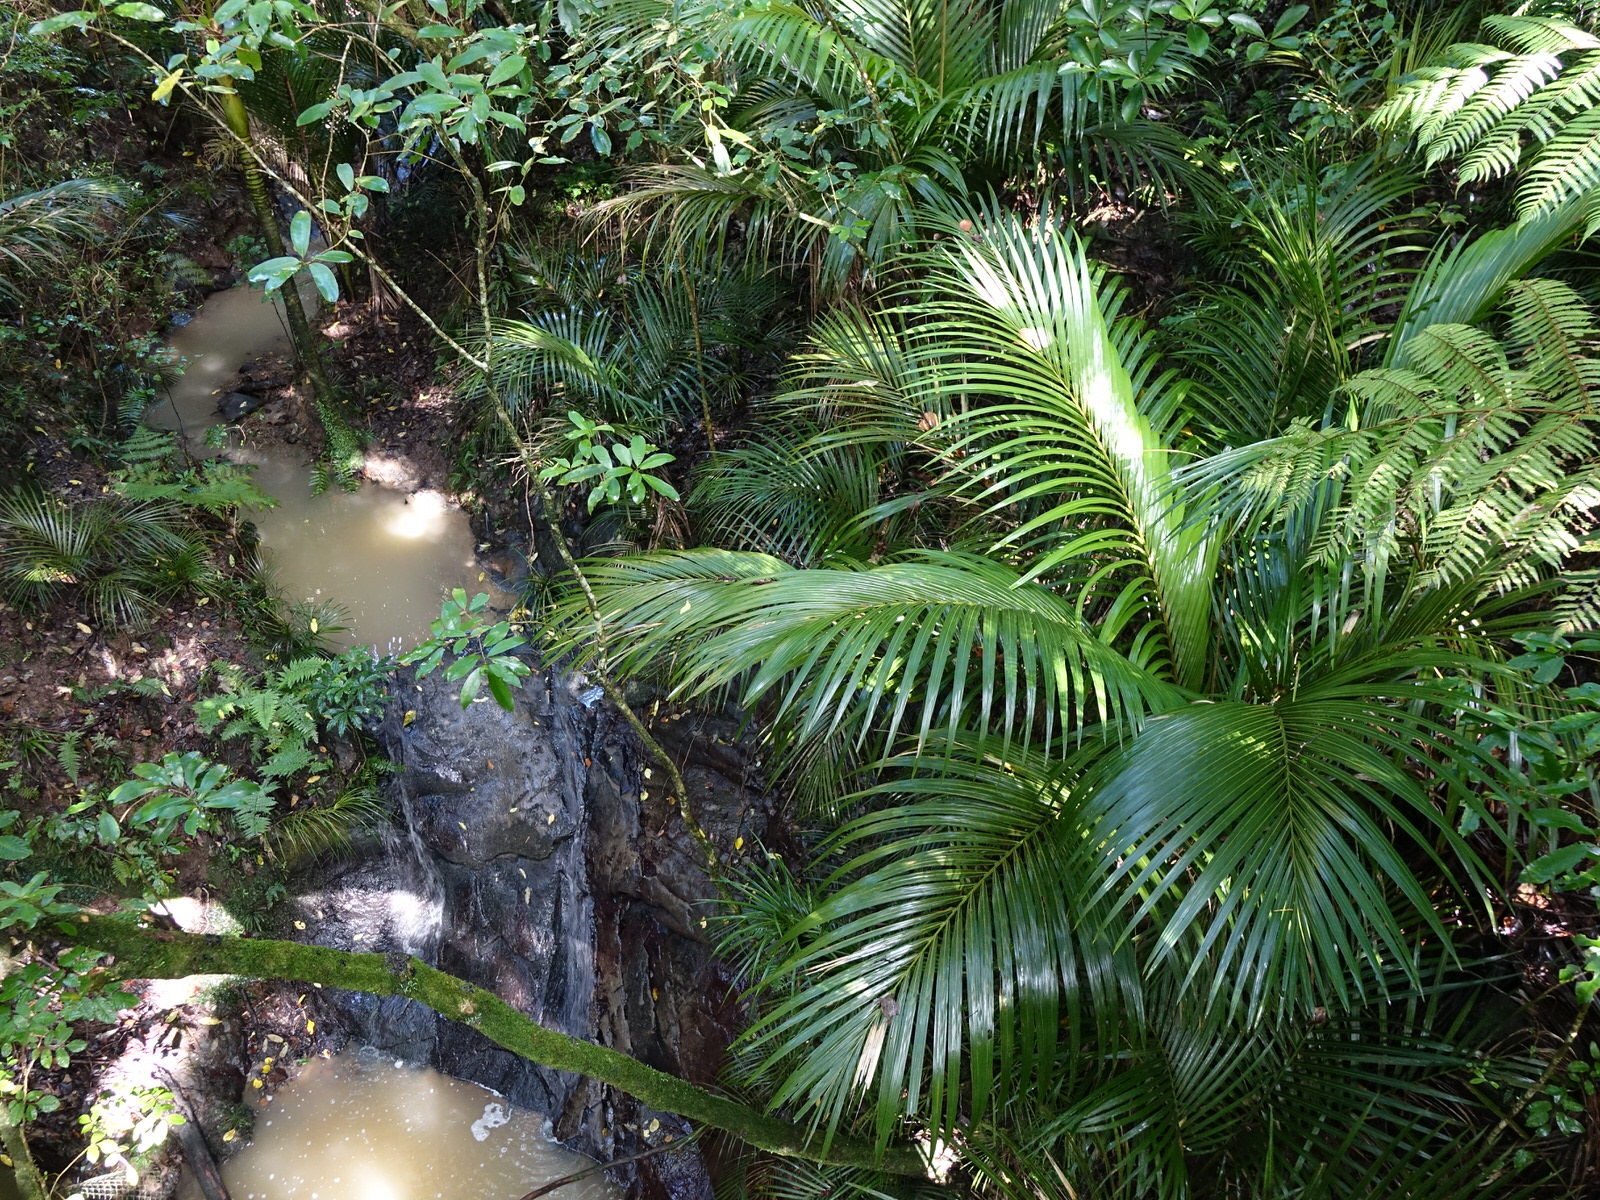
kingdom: Plantae
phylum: Tracheophyta
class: Liliopsida
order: Arecales
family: Arecaceae
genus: Rhopalostylis
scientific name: Rhopalostylis sapida
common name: Feather-duster palm
